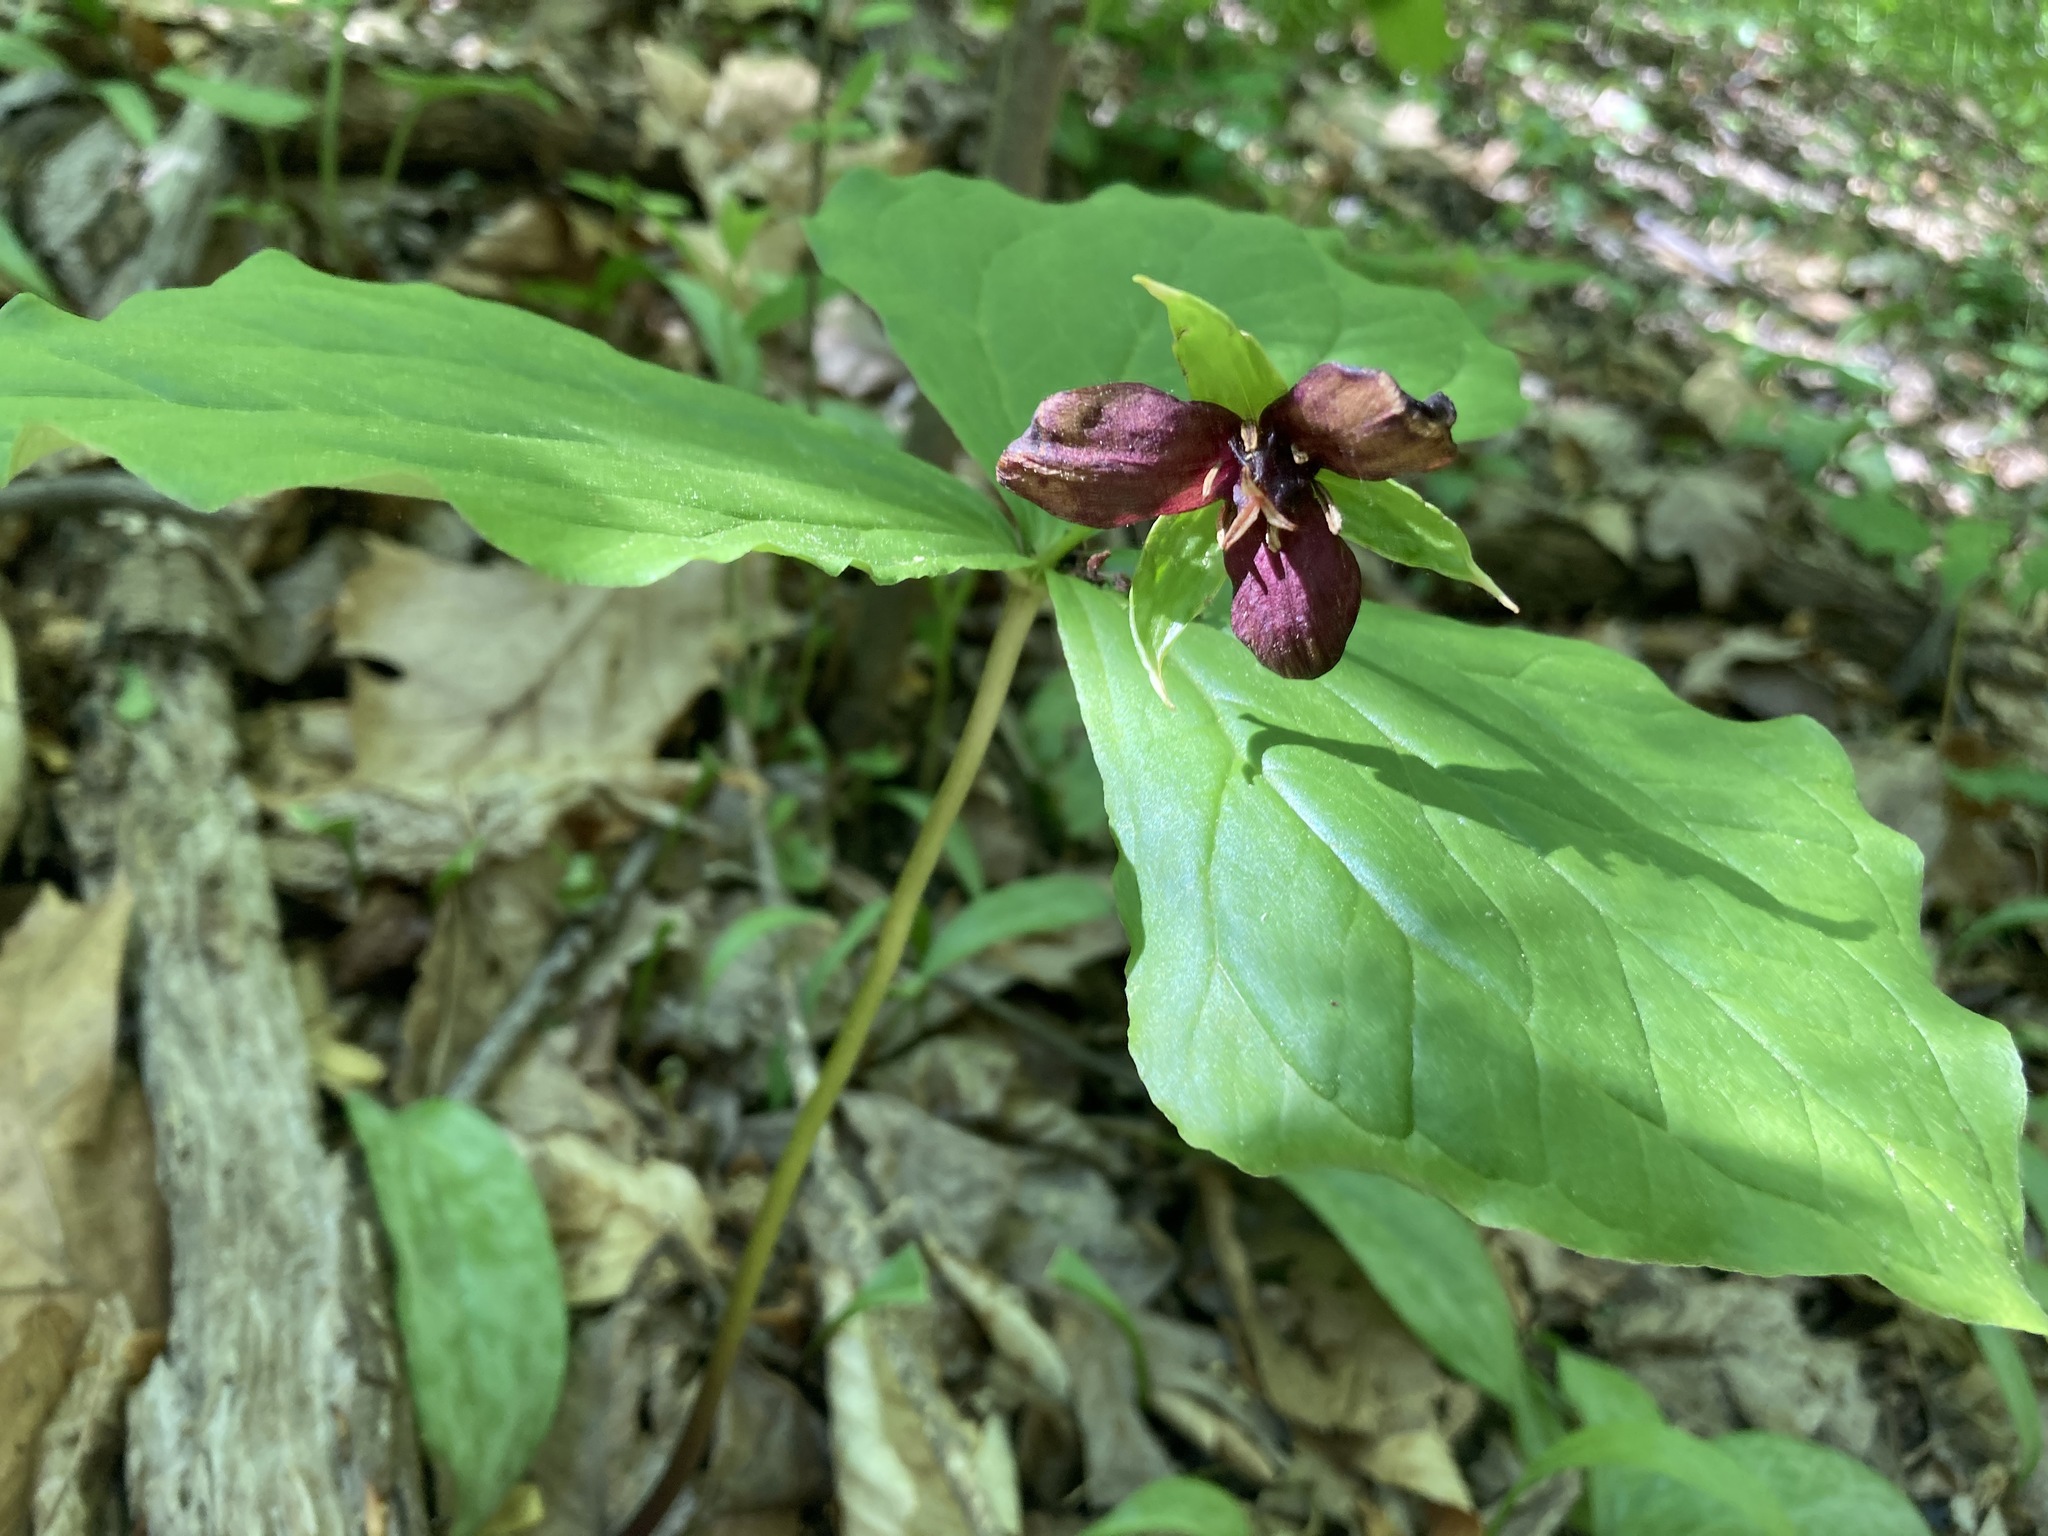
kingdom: Plantae
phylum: Tracheophyta
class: Liliopsida
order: Liliales
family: Melanthiaceae
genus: Trillium
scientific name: Trillium erectum
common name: Purple trillium
